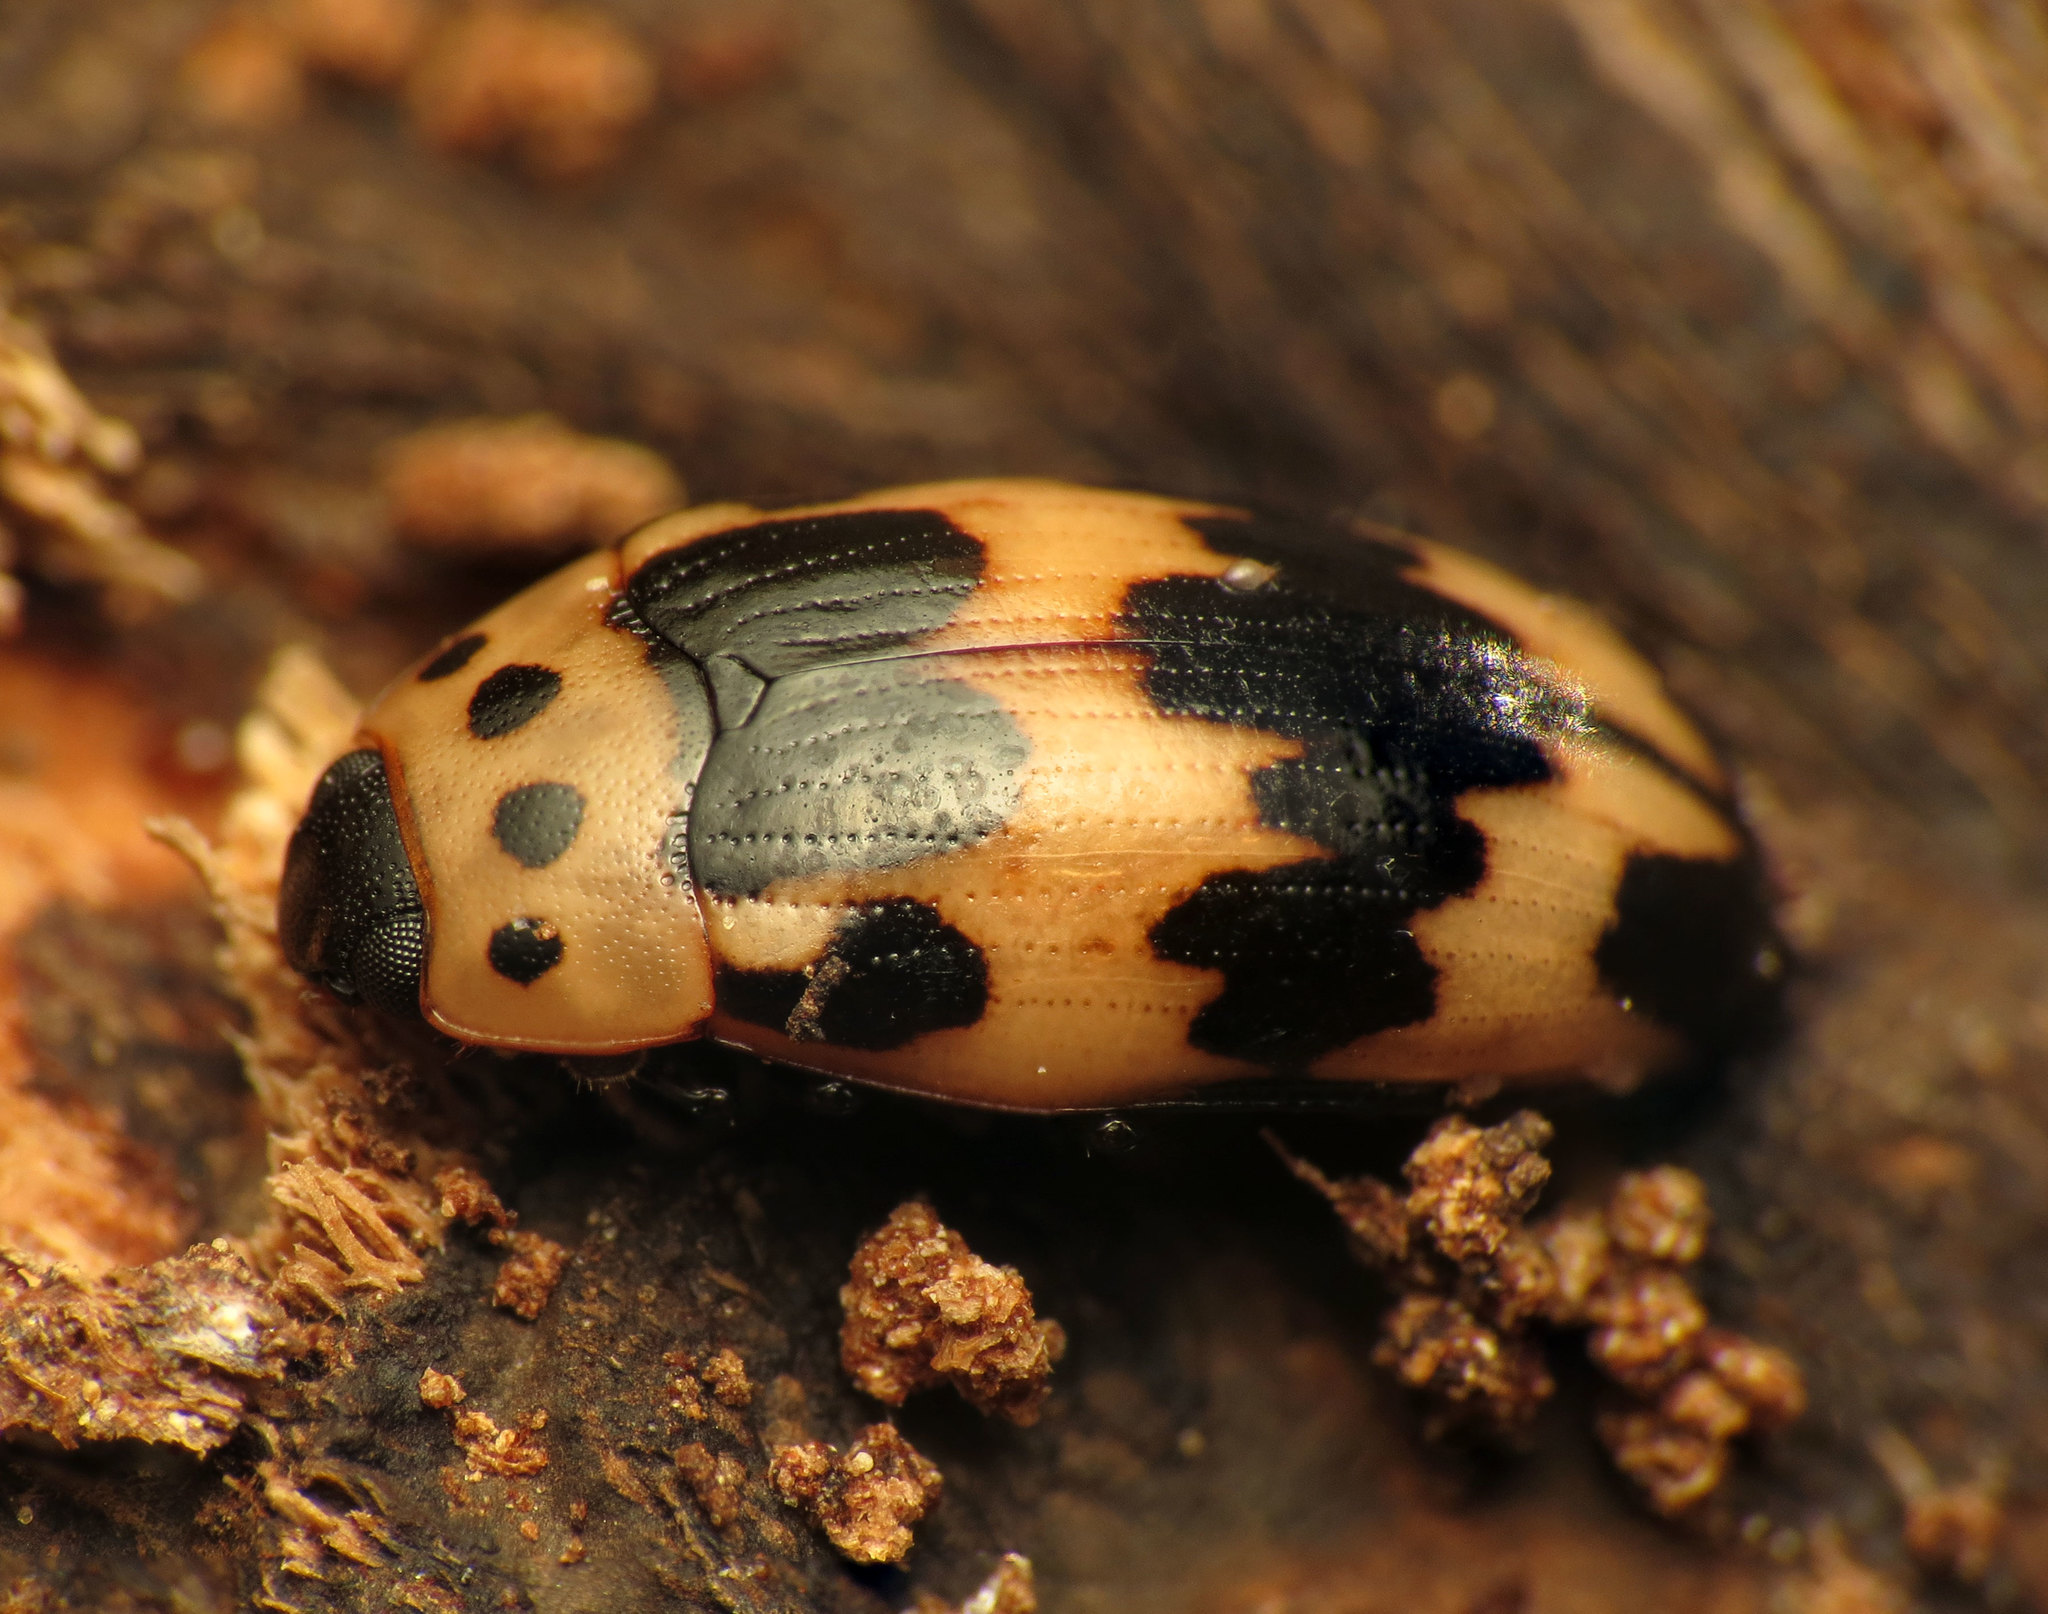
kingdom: Animalia
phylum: Arthropoda
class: Insecta
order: Coleoptera
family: Erotylidae
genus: Ischyrus
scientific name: Ischyrus quadripunctatus
